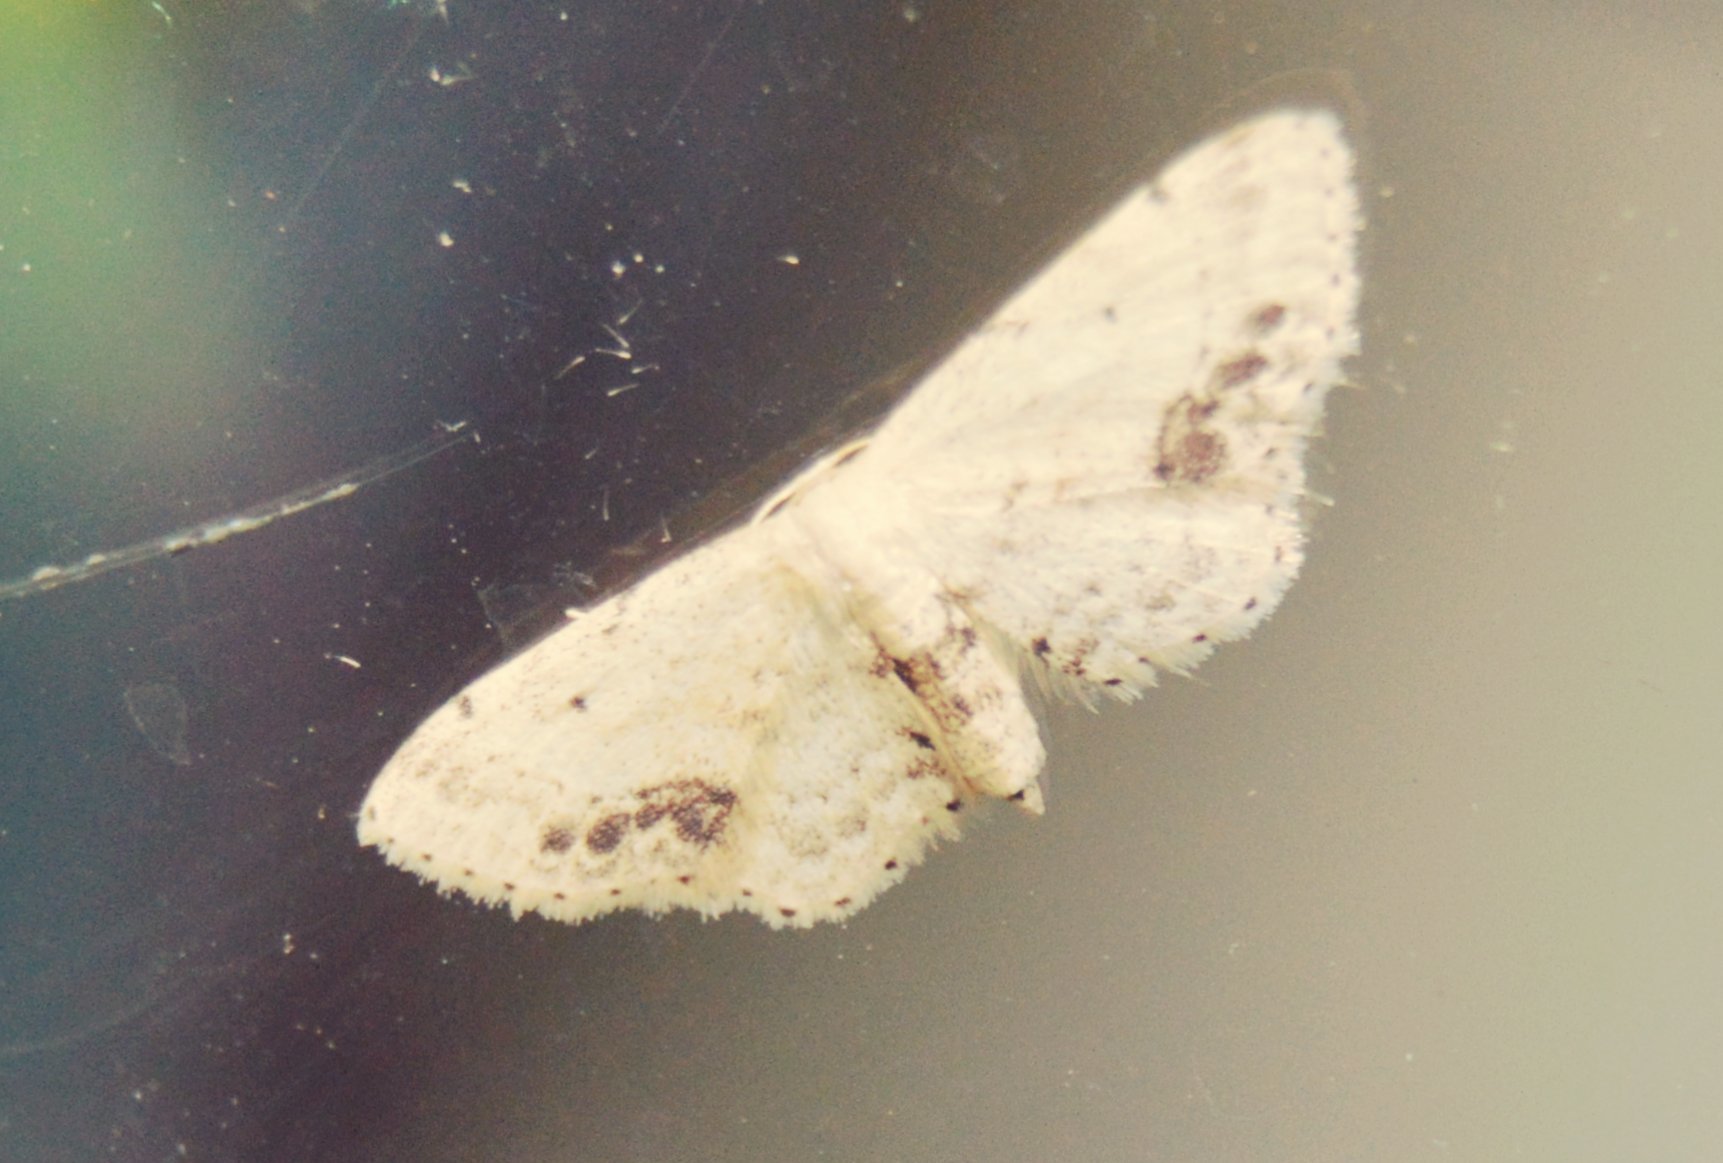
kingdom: Animalia
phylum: Arthropoda
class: Insecta
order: Lepidoptera
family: Geometridae
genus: Idaea
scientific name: Idaea dimidiata
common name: Single-dotted wave
